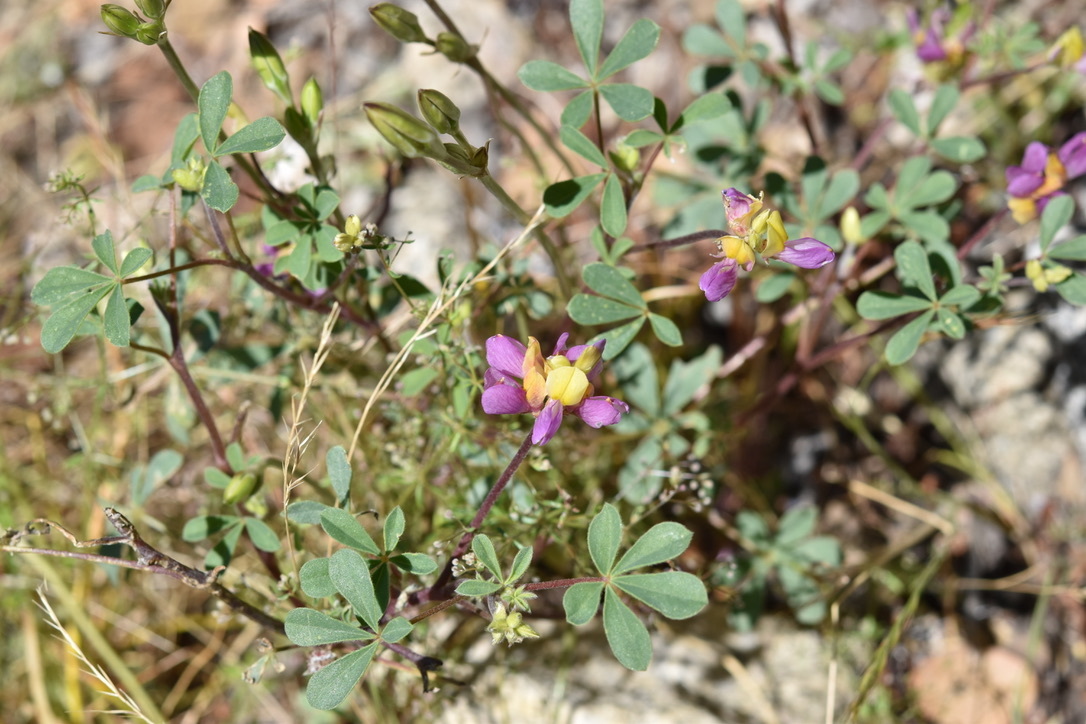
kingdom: Plantae
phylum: Tracheophyta
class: Magnoliopsida
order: Fabales
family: Fabaceae
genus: Lupinus
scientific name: Lupinus stiversii
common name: Harlequin lupine
